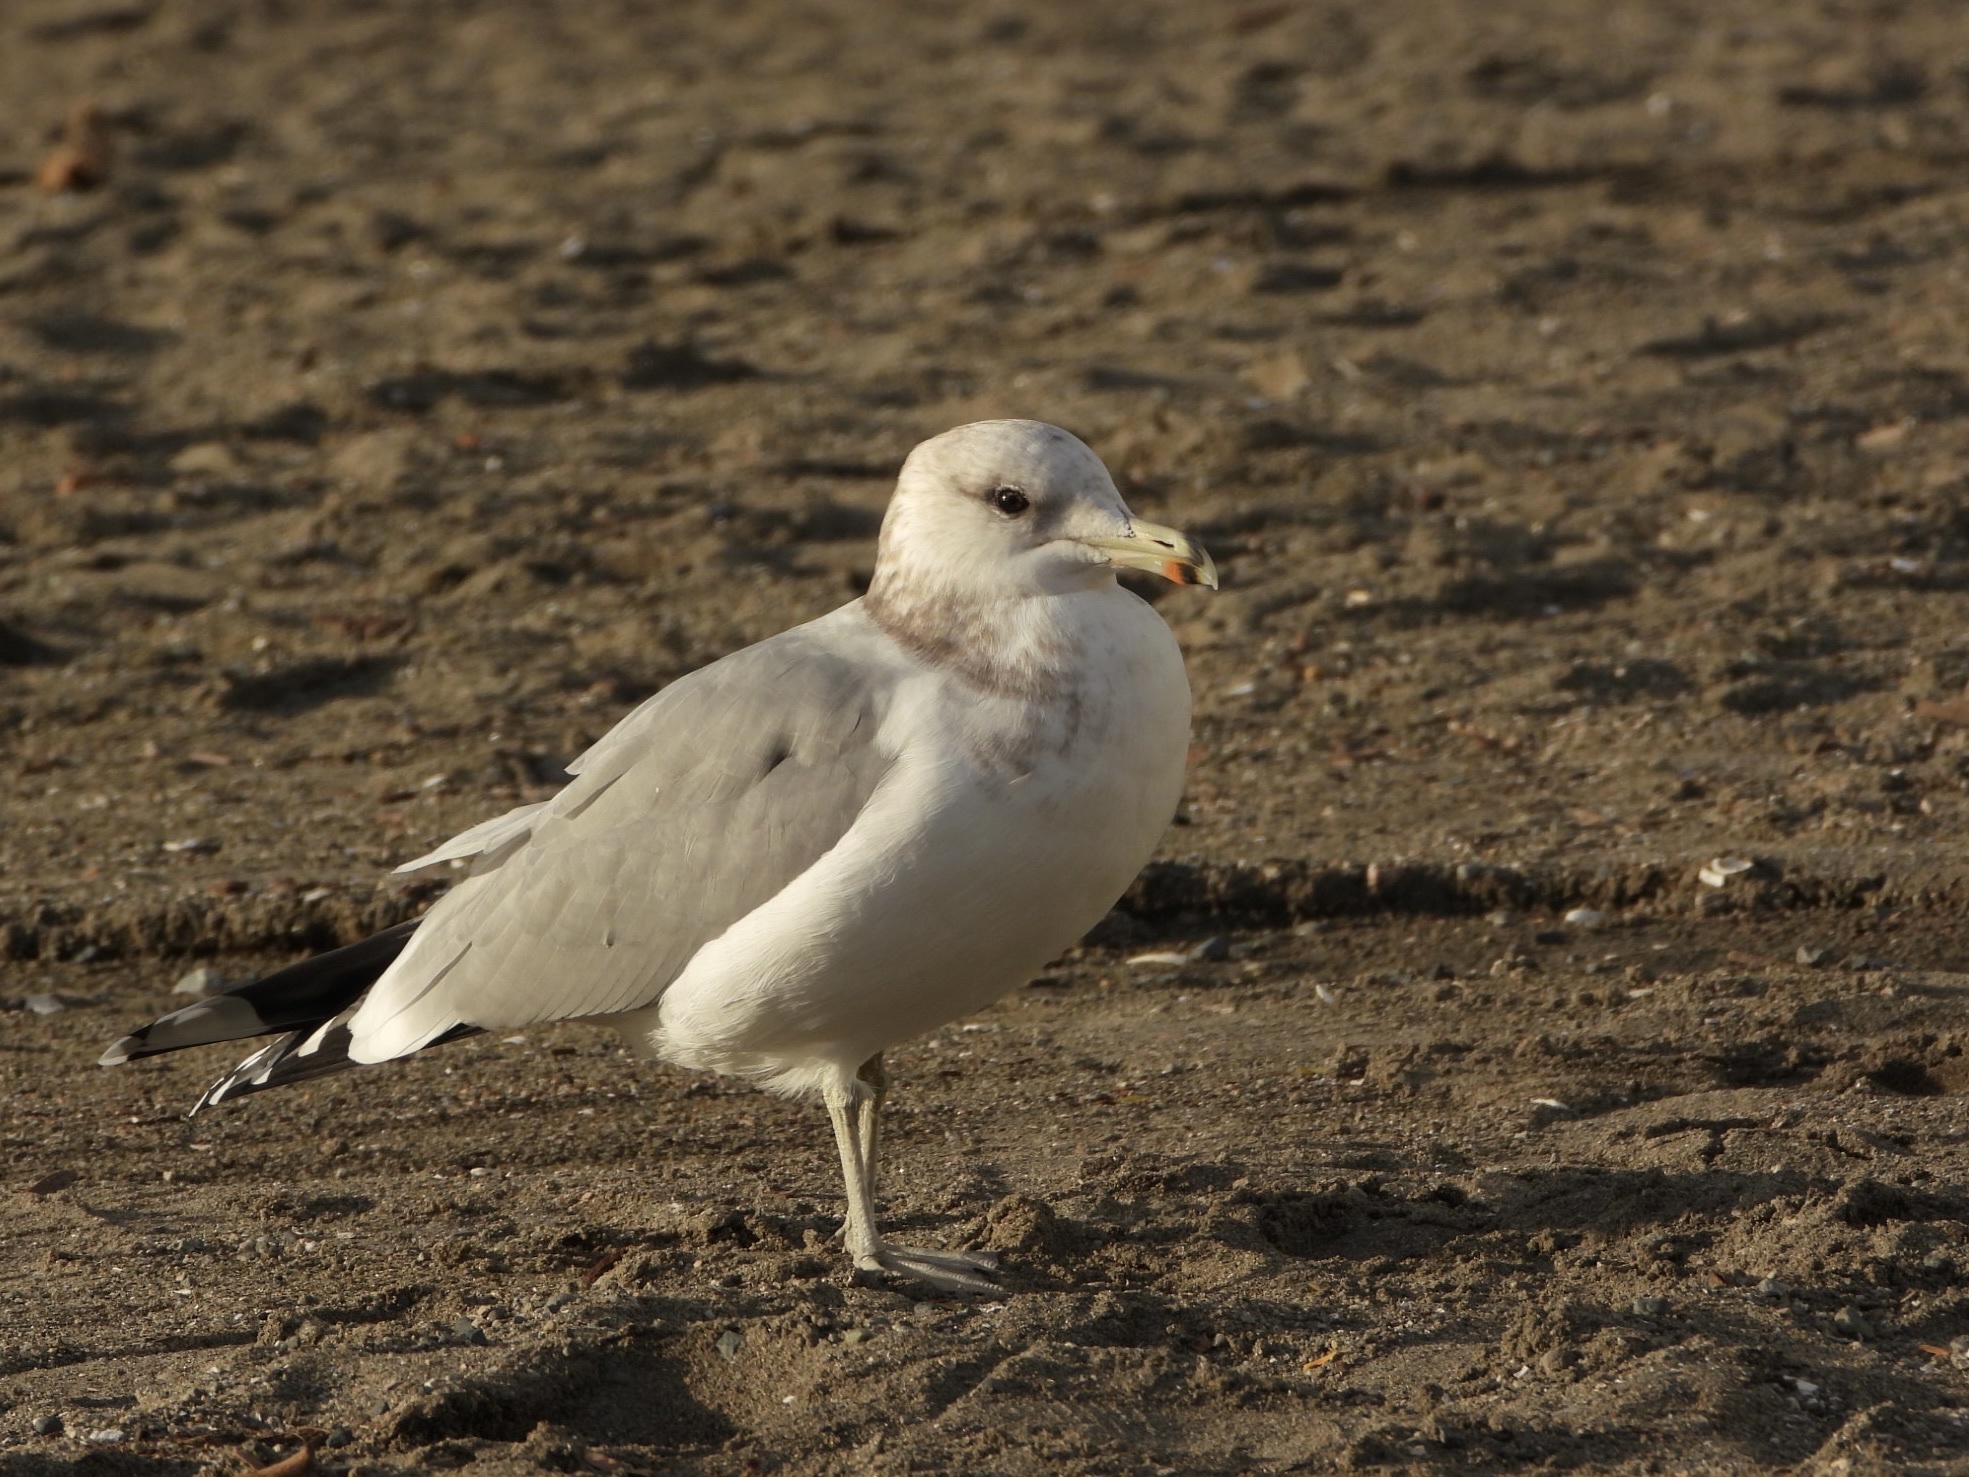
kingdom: Animalia
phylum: Chordata
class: Aves
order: Charadriiformes
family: Laridae
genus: Larus
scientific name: Larus californicus
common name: California gull
